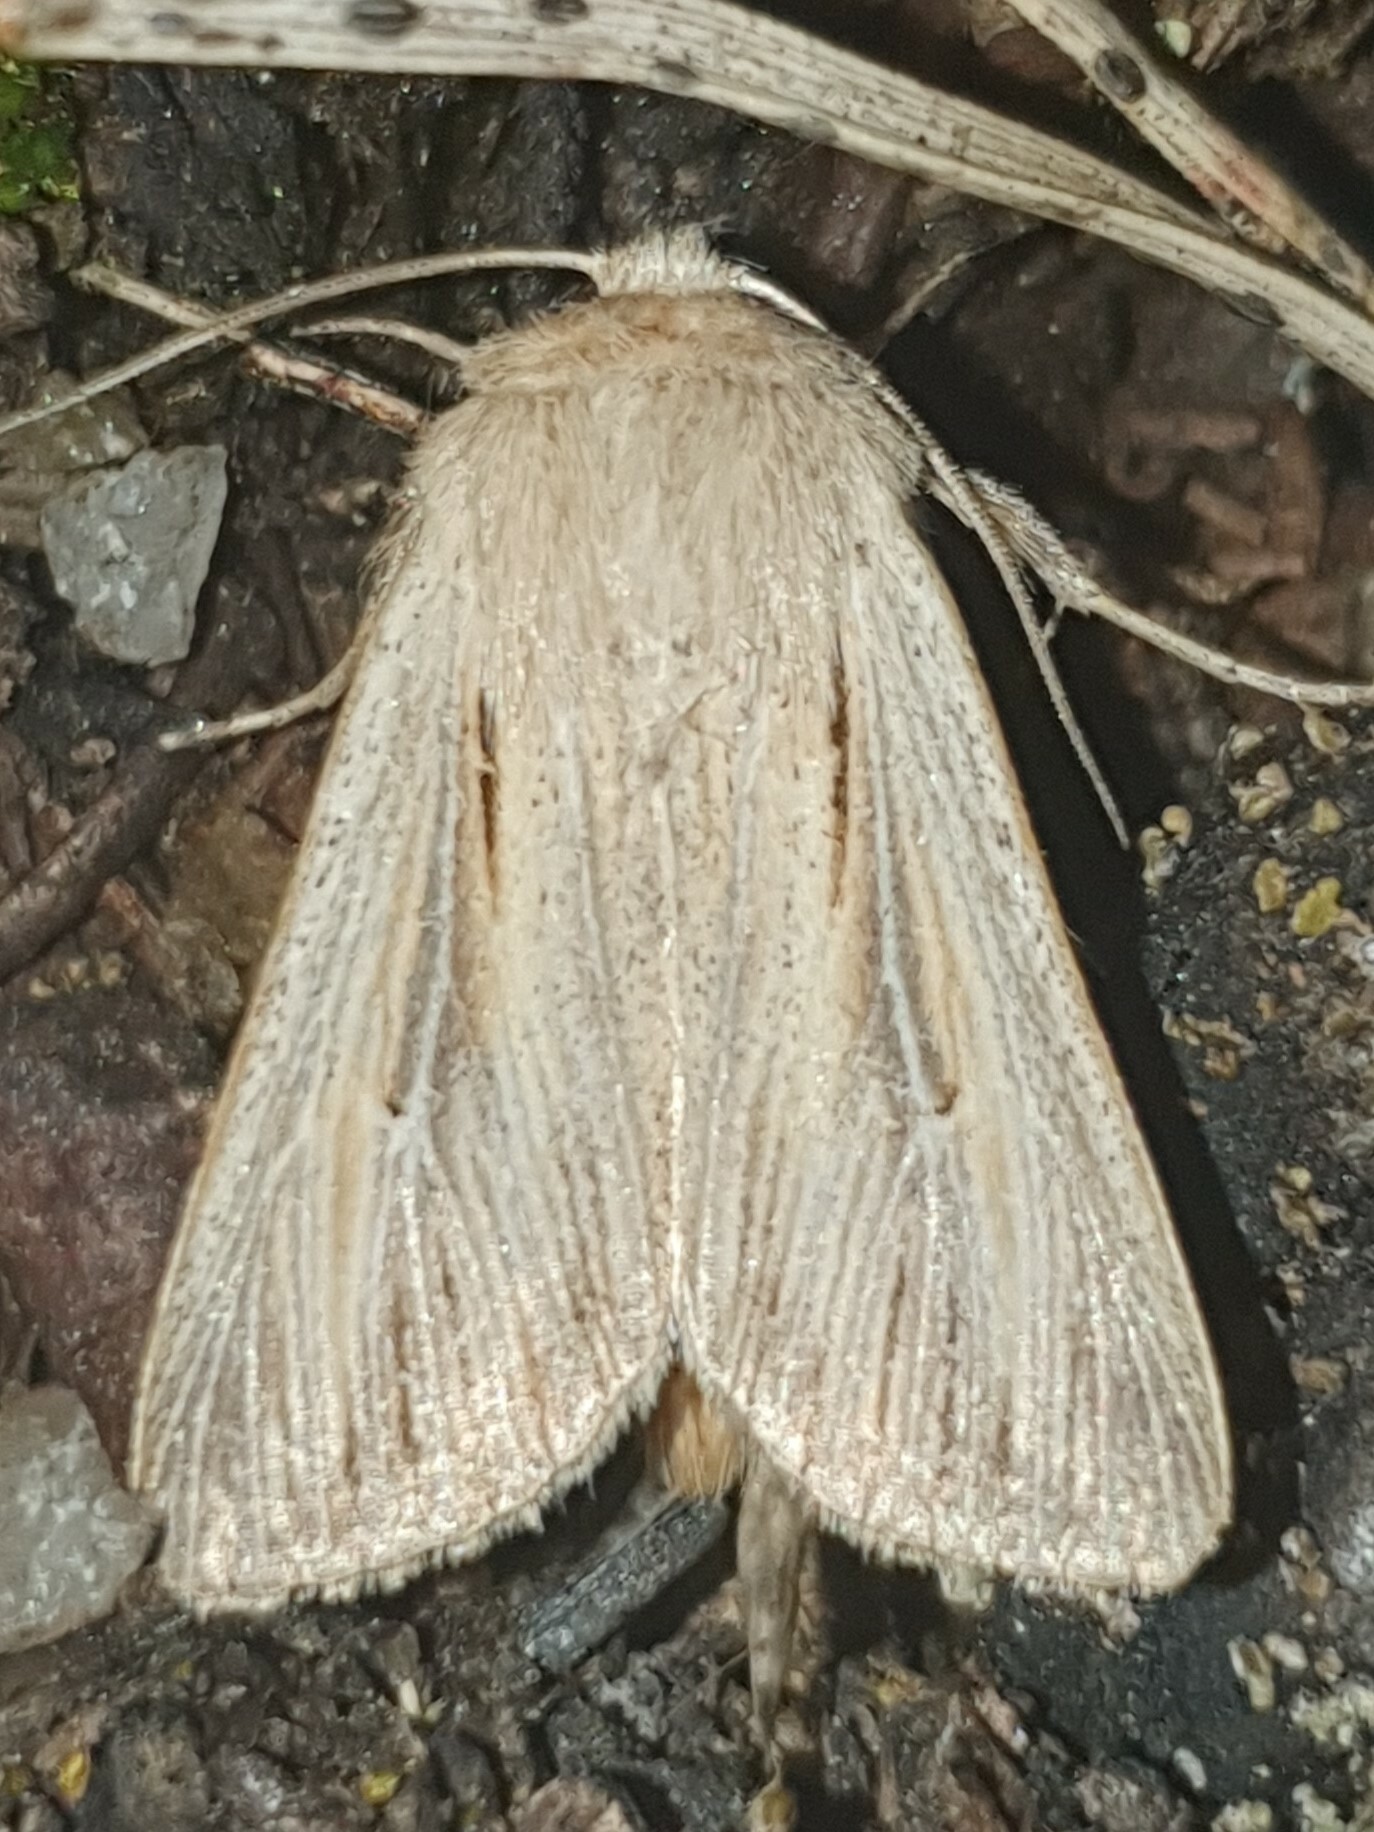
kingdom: Animalia
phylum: Arthropoda
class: Insecta
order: Lepidoptera
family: Noctuidae
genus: Leucania
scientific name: Leucania comma
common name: Shoulder-striped wainscot
